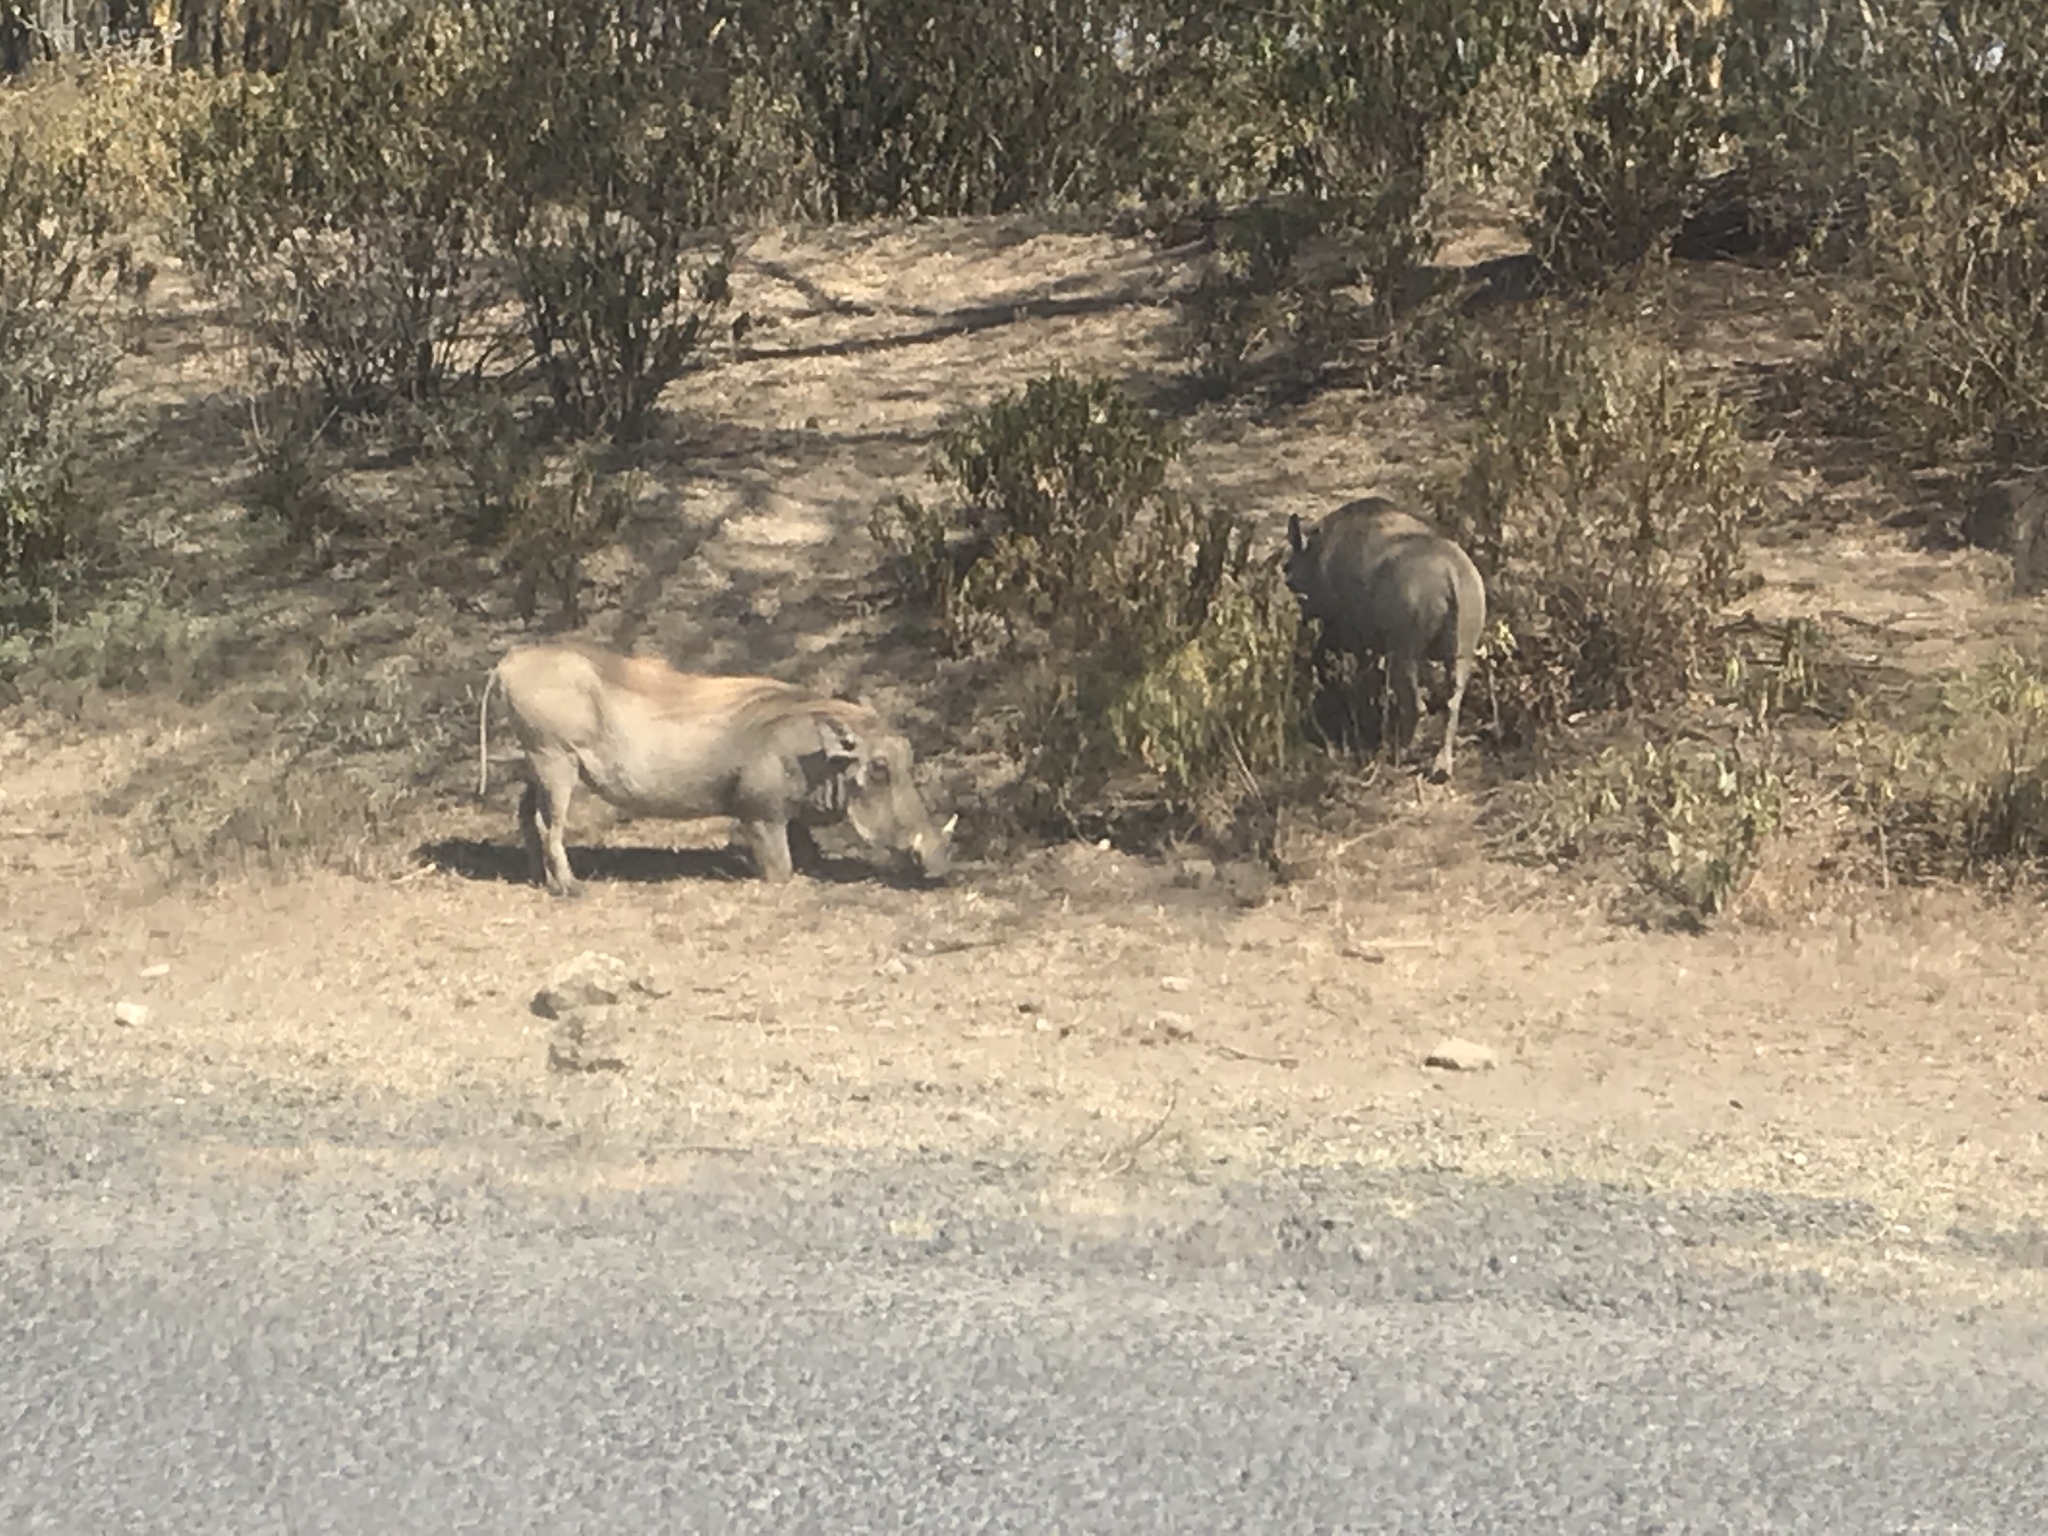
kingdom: Animalia
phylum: Chordata
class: Mammalia
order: Artiodactyla
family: Suidae
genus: Phacochoerus
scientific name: Phacochoerus africanus
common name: Common warthog
